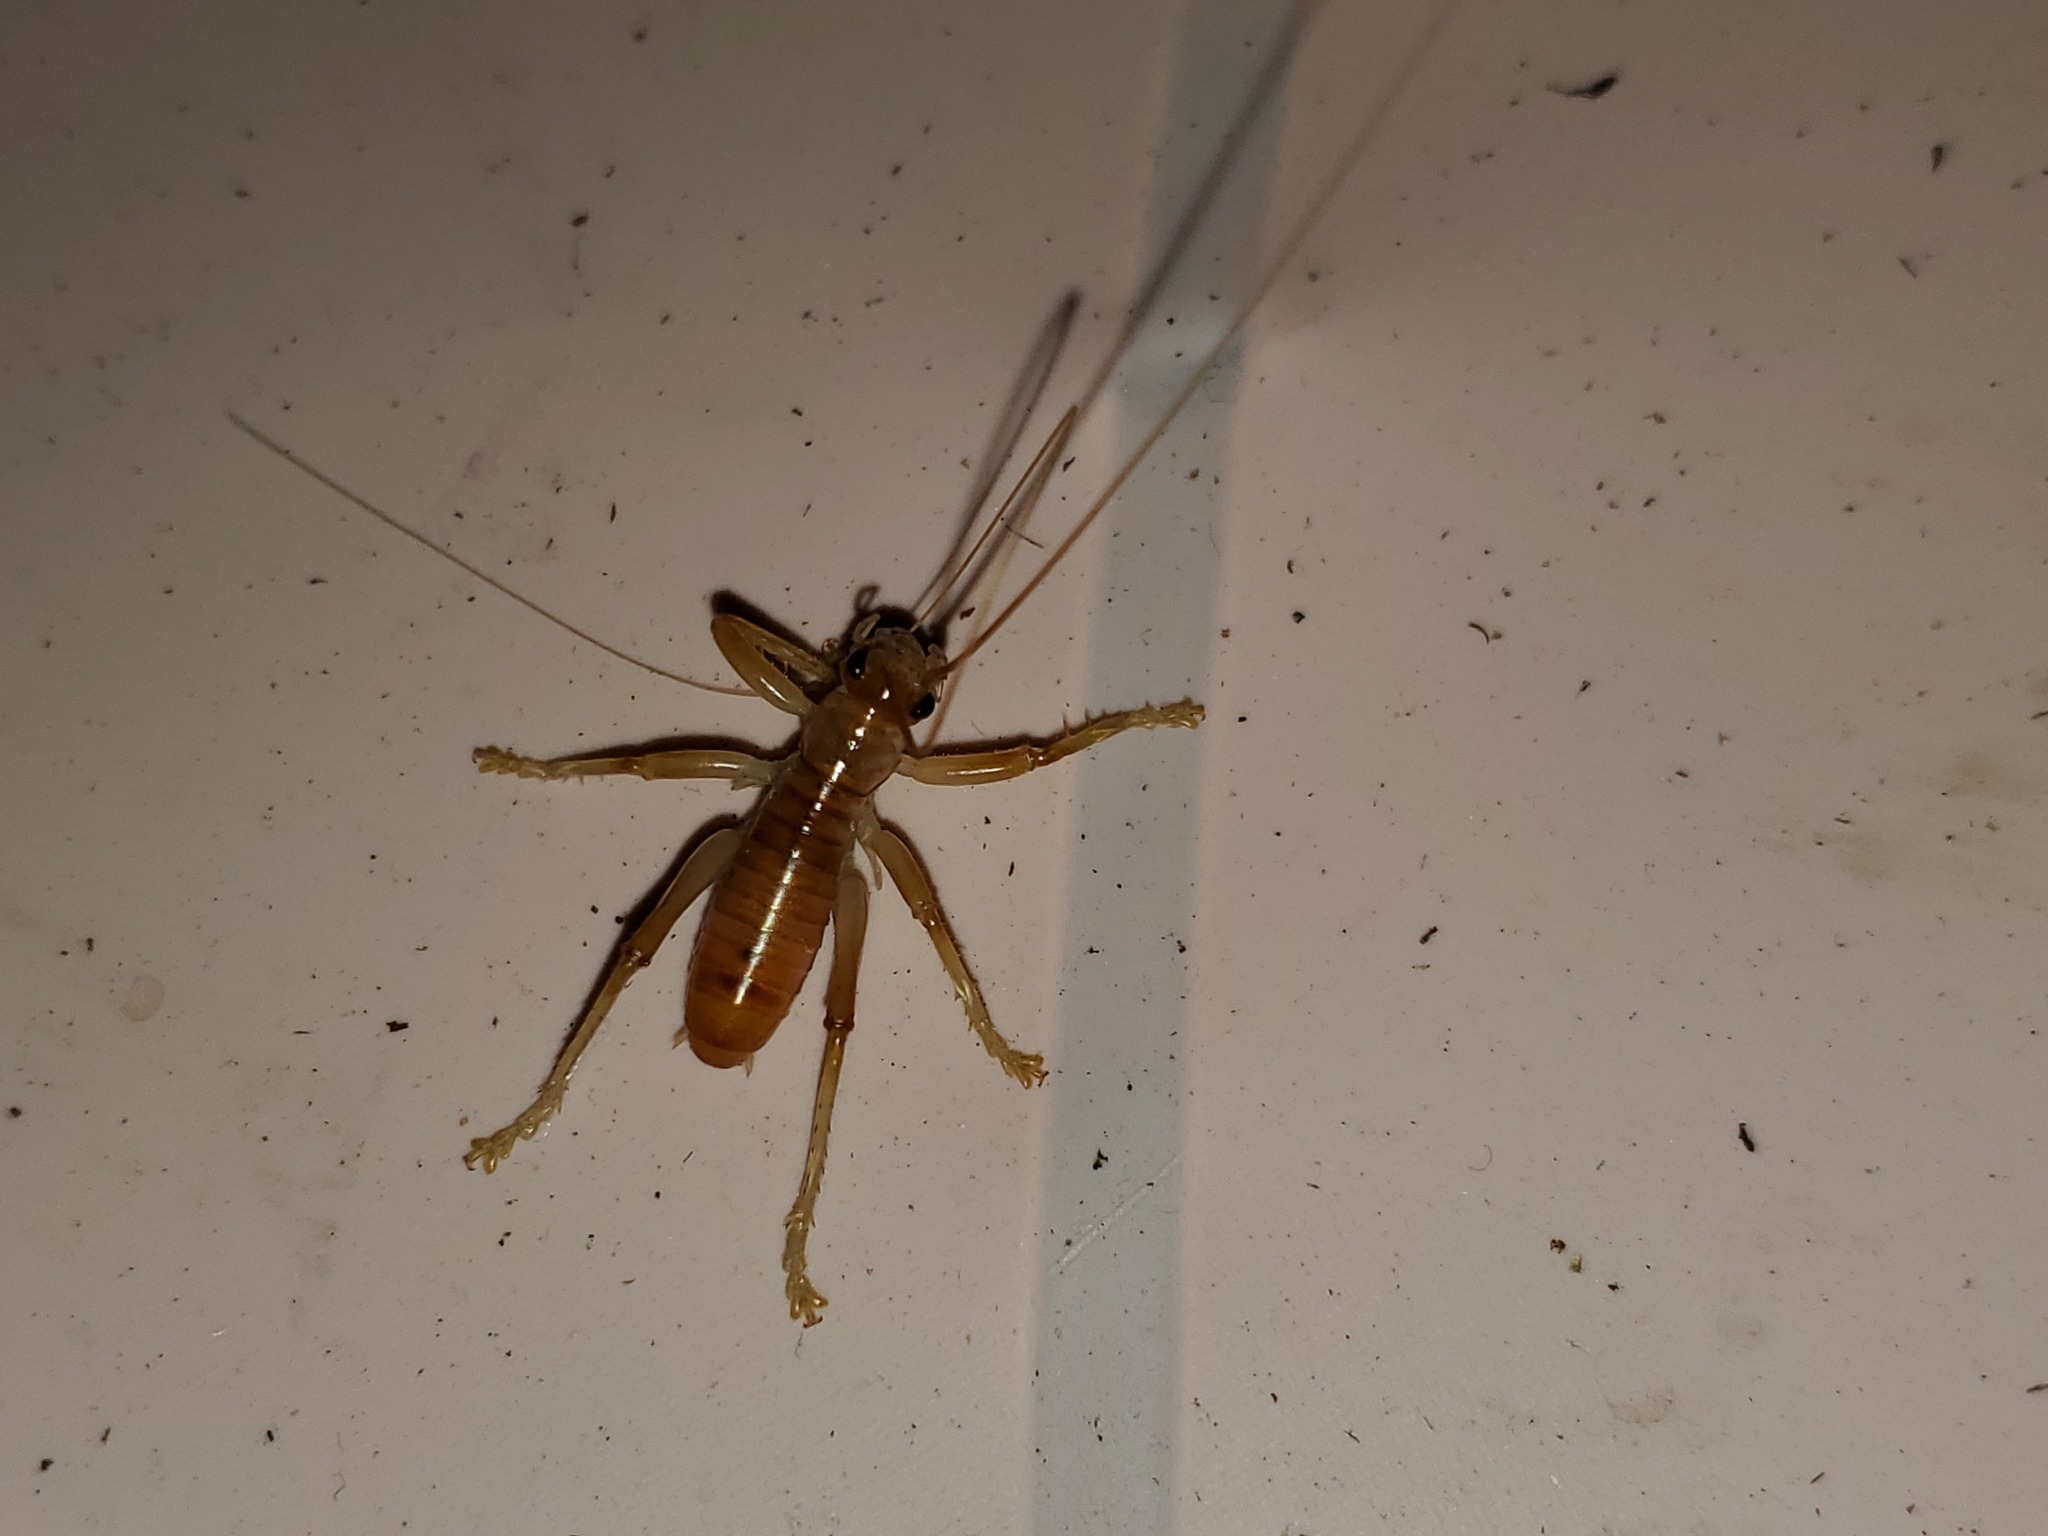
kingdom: Animalia
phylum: Arthropoda
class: Insecta
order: Orthoptera
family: Gryllacrididae
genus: Camptonotus
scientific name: Camptonotus carolinensis
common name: Carolina leaf-roller
